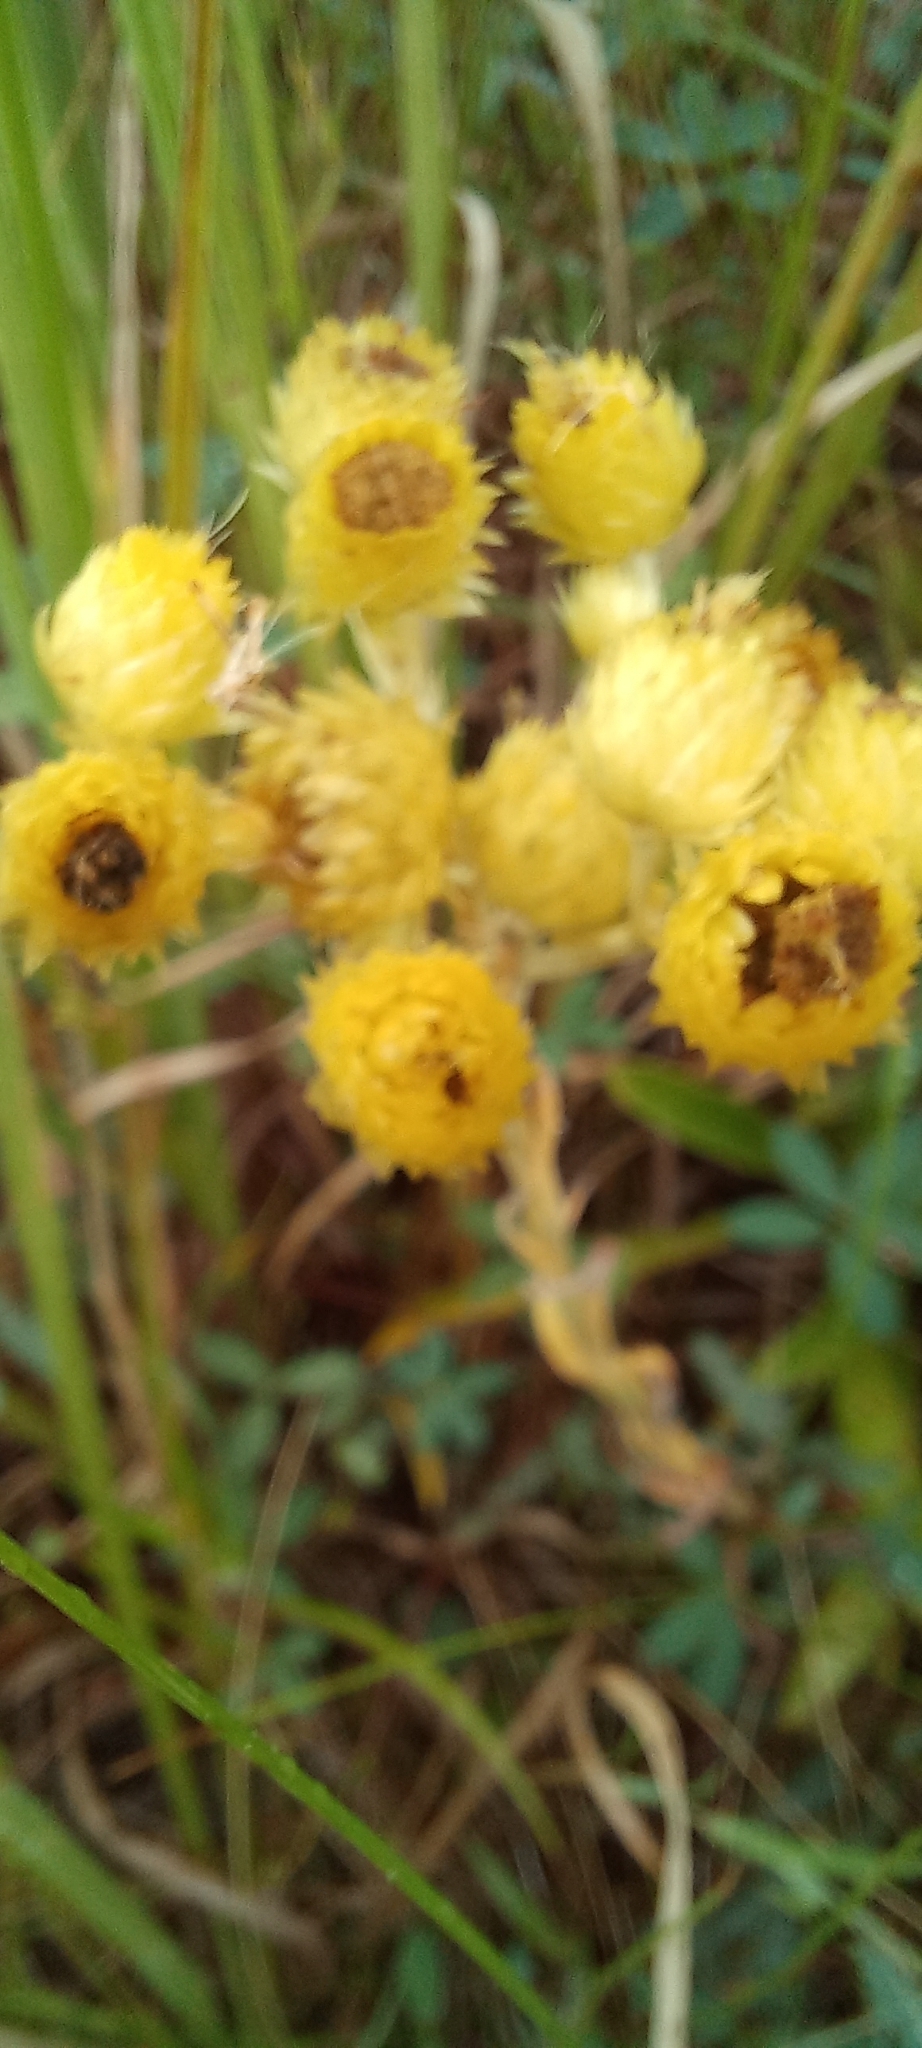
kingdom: Plantae
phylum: Tracheophyta
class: Magnoliopsida
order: Asterales
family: Asteraceae
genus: Helichrysum
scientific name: Helichrysum longifolium
